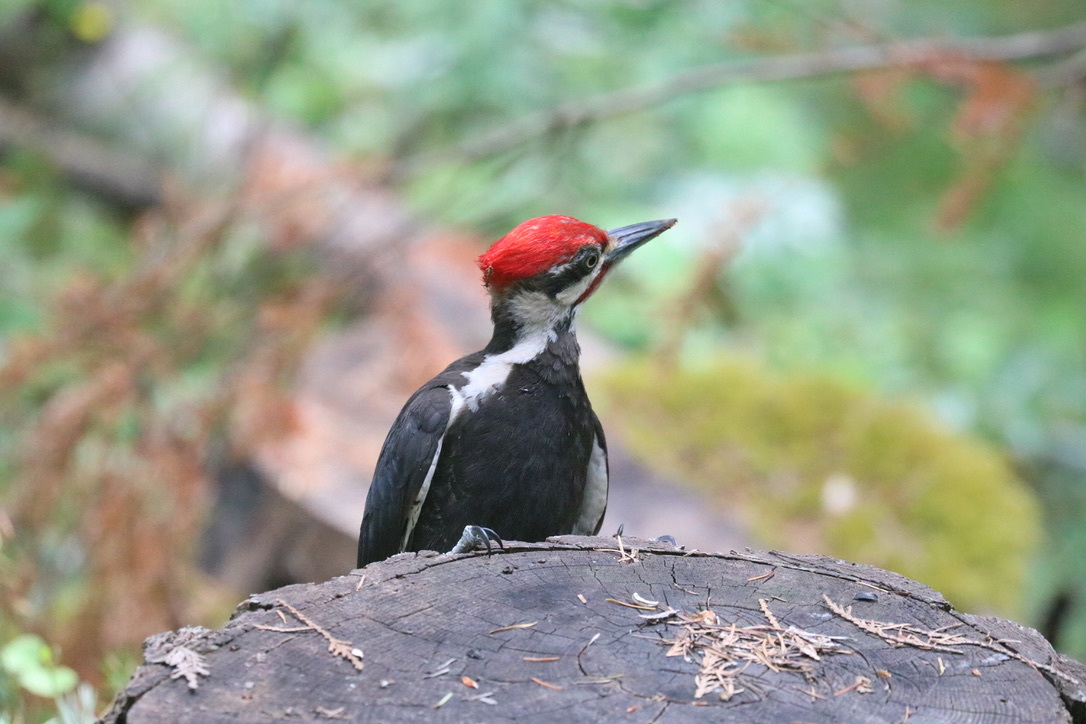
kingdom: Animalia
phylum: Chordata
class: Aves
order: Piciformes
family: Picidae
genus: Dryocopus
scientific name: Dryocopus pileatus
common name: Pileated woodpecker
